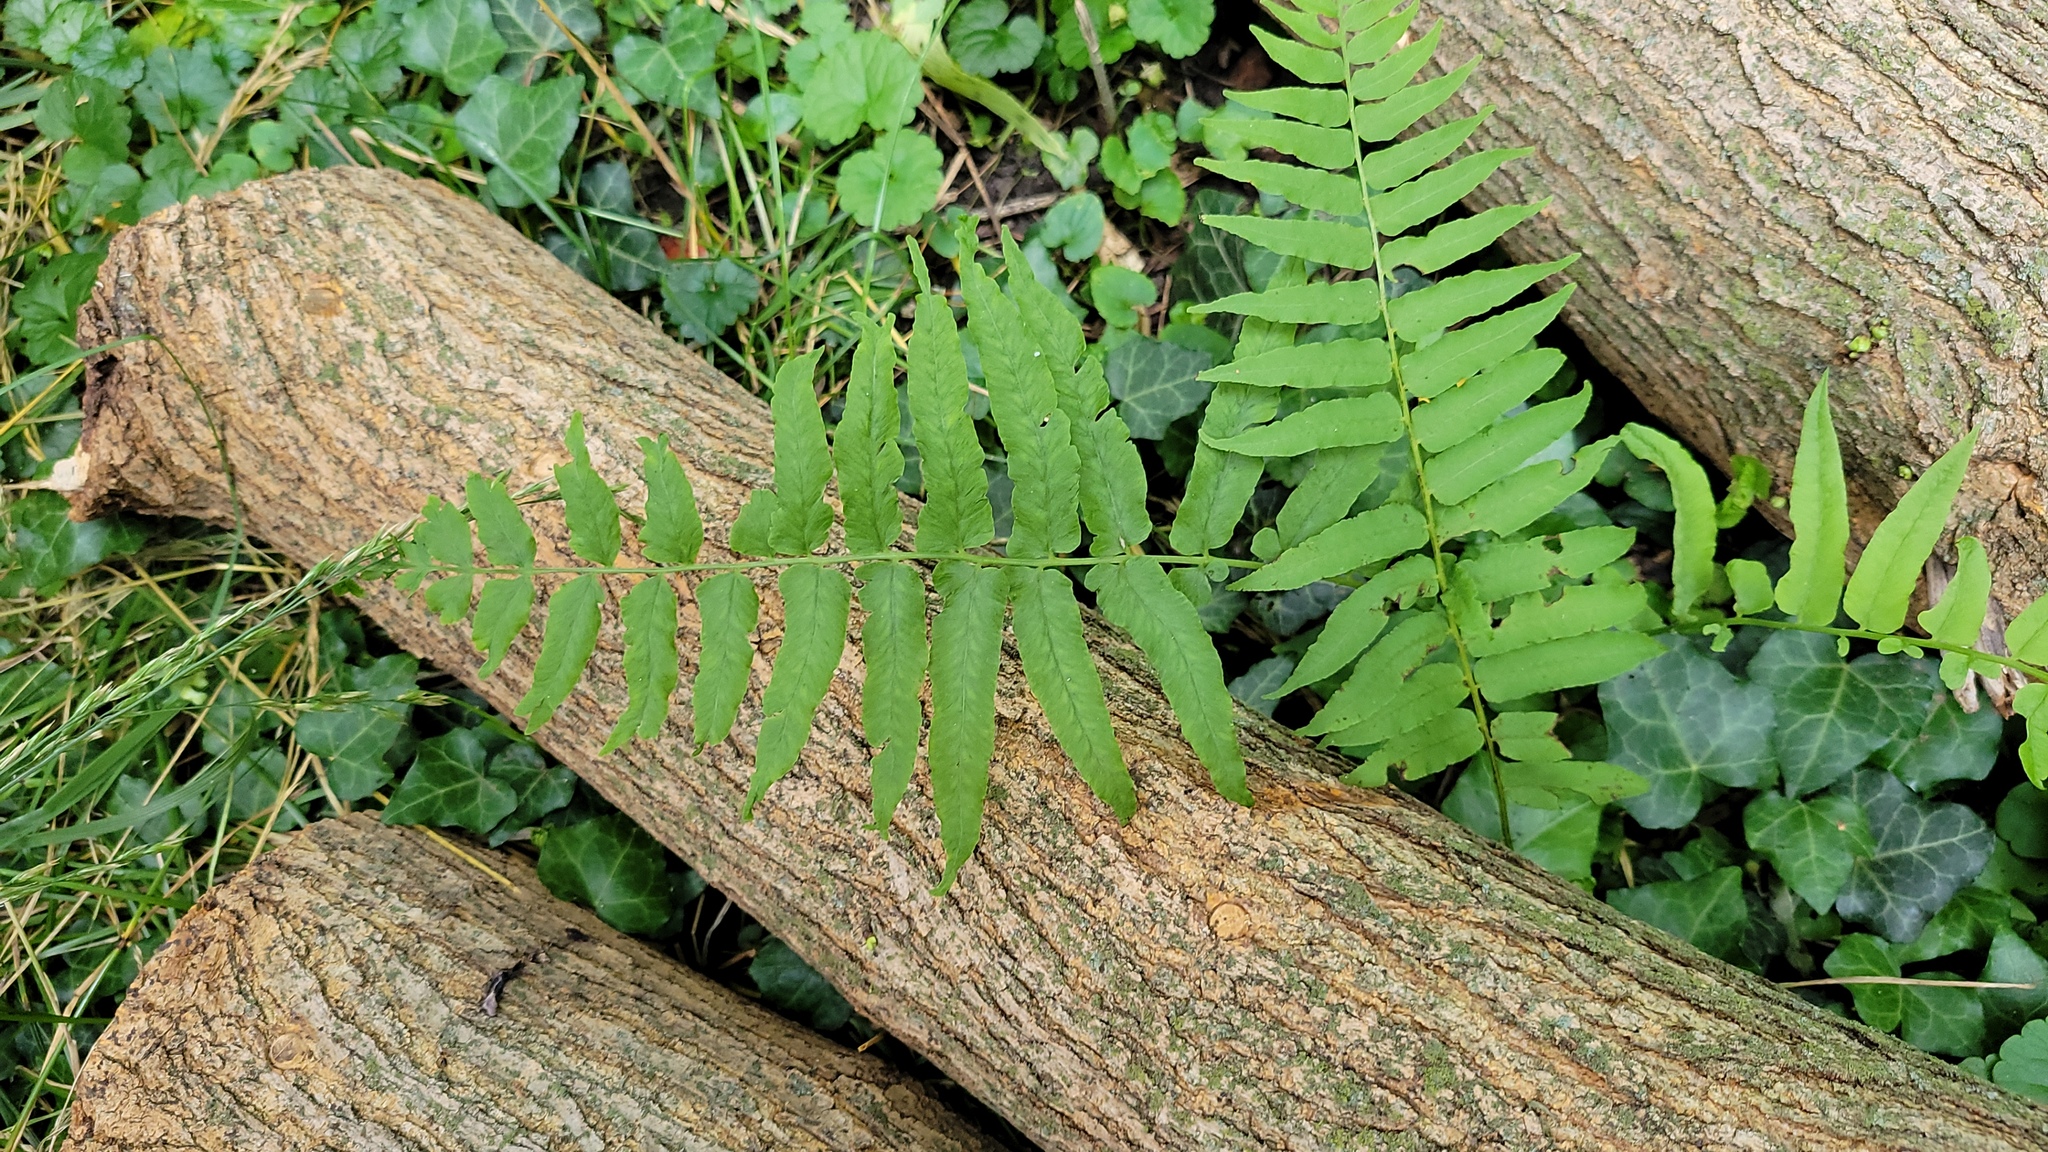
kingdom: Plantae
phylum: Tracheophyta
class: Polypodiopsida
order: Polypodiales
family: Diplaziopsidaceae
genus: Homalosorus
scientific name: Homalosorus pycnocarpos
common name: Glade fern
